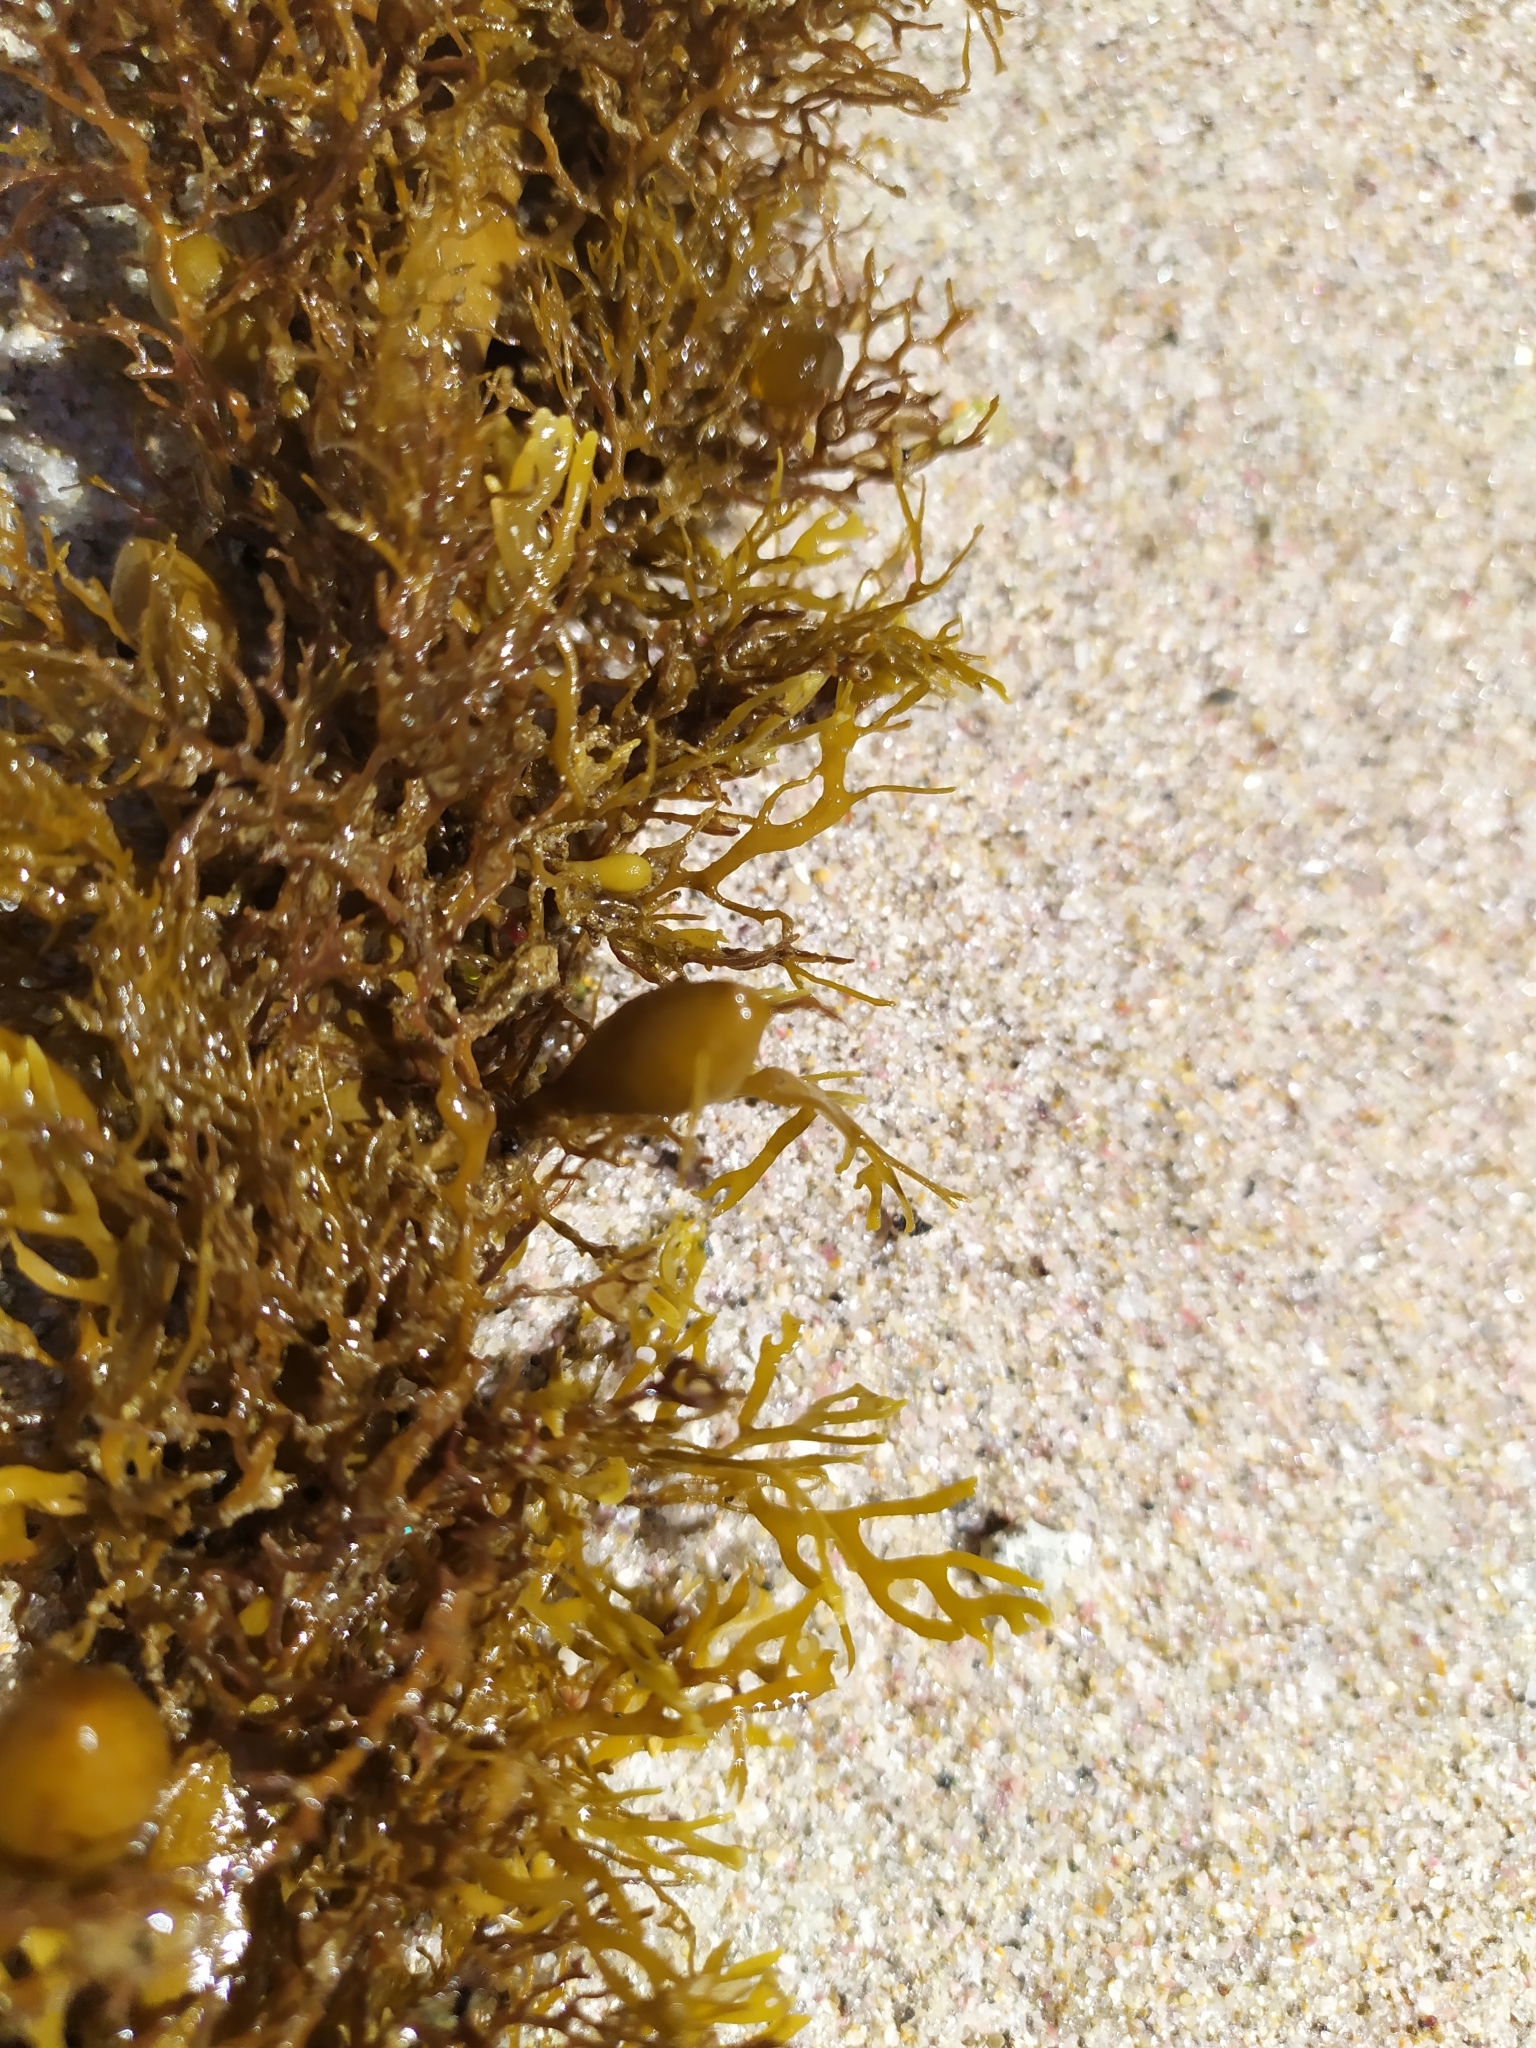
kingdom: Chromista
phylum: Ochrophyta
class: Phaeophyceae
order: Fucales
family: Sargassaceae
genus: Carpophyllum
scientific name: Carpophyllum plumosum
